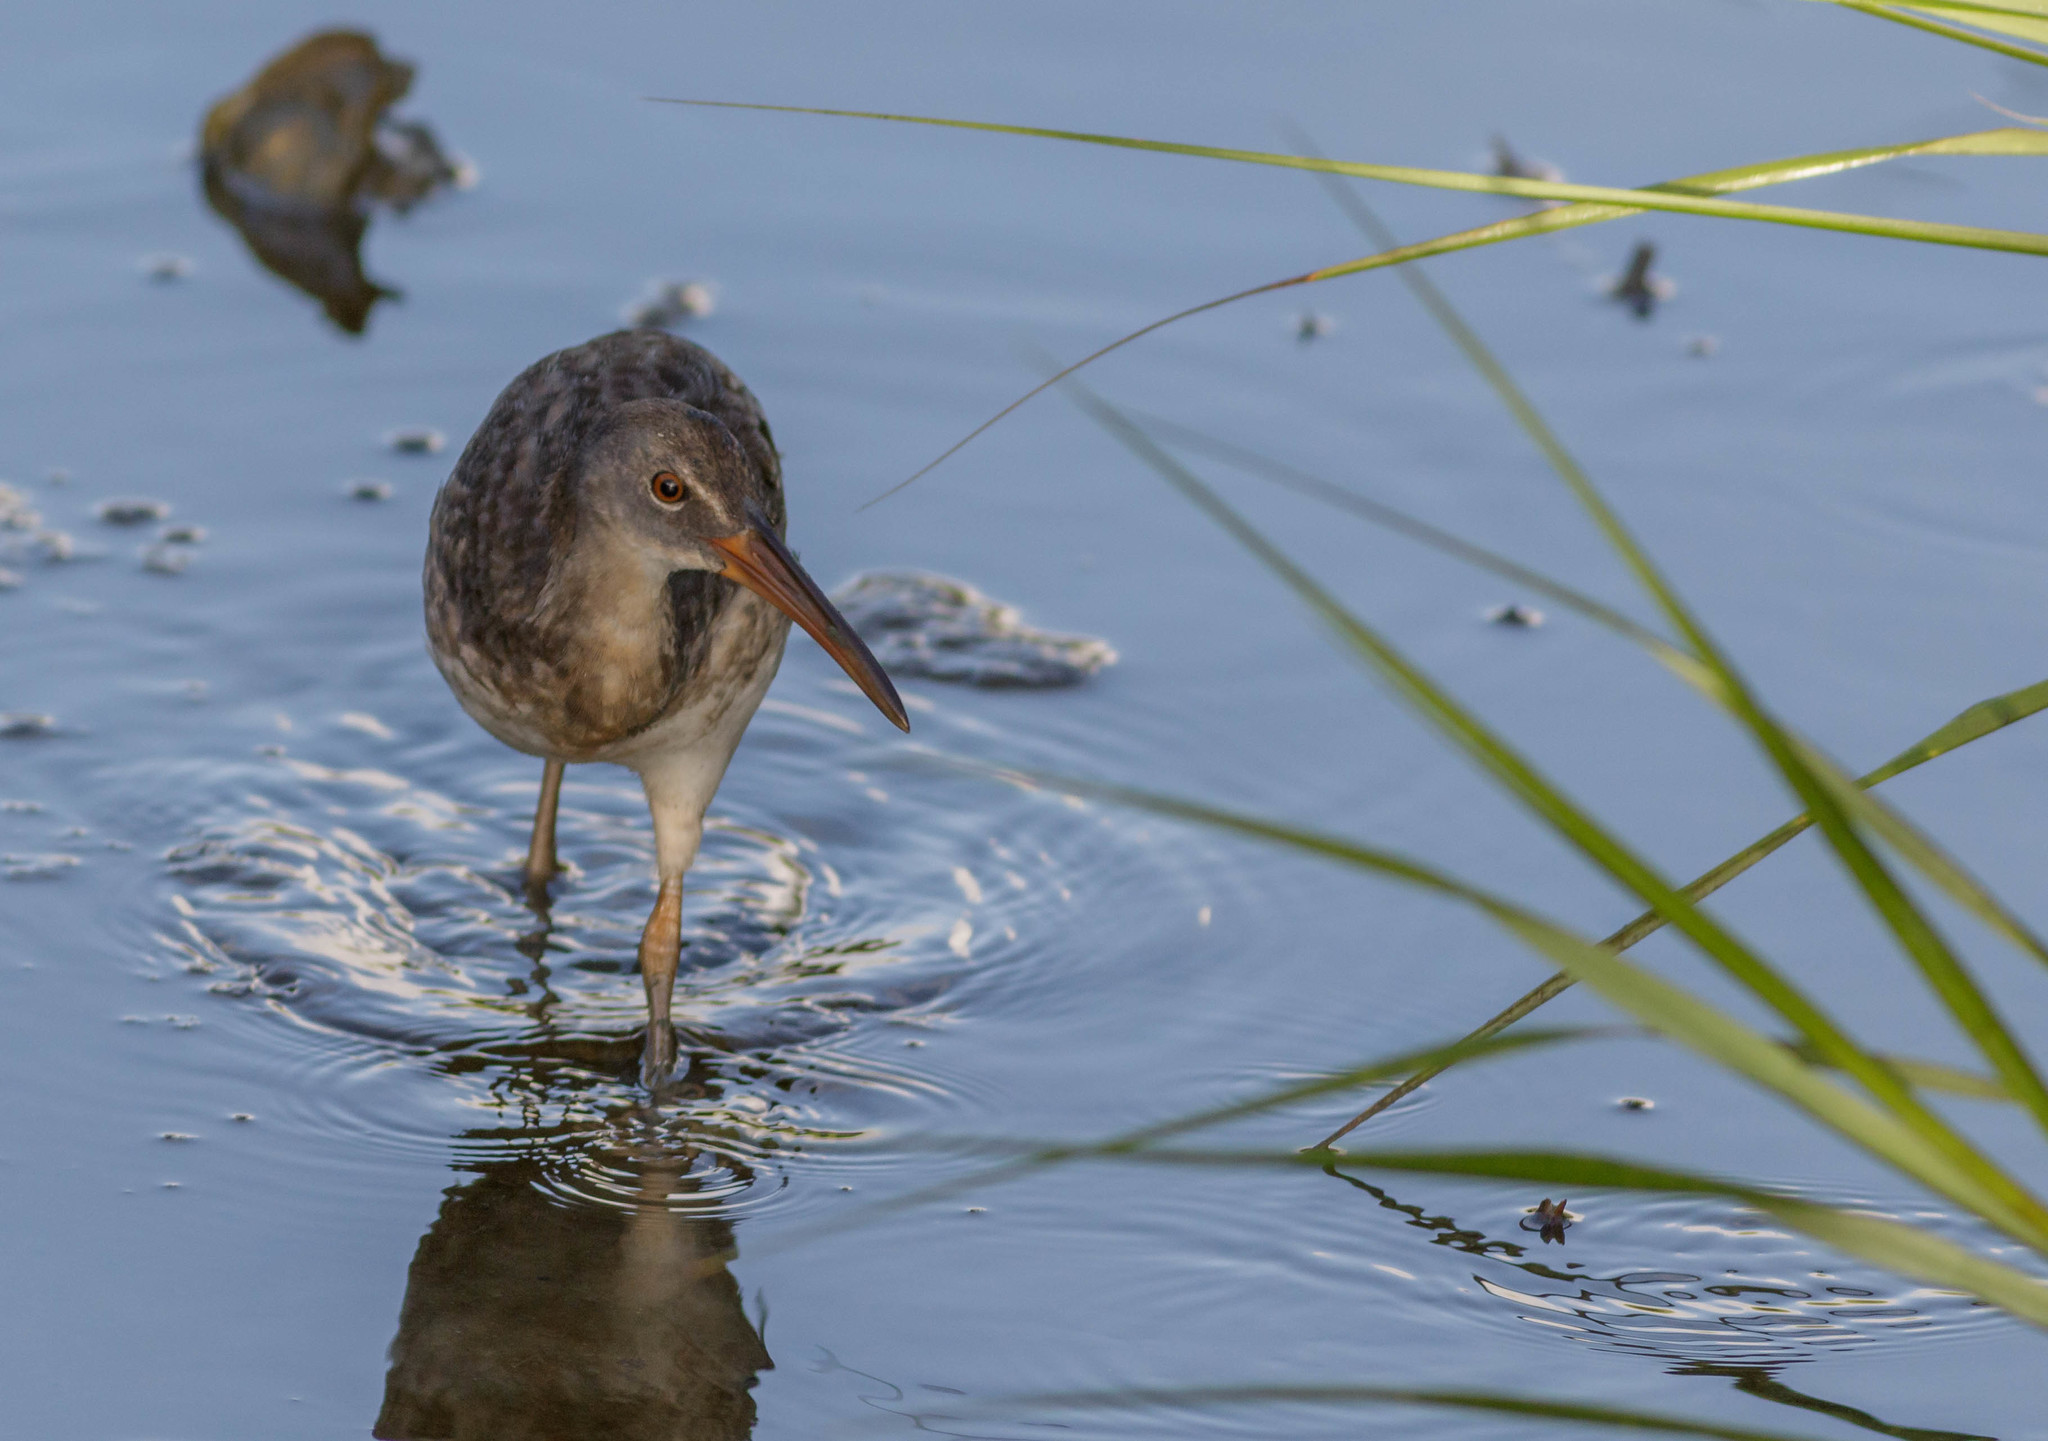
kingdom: Animalia
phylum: Chordata
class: Aves
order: Gruiformes
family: Rallidae
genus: Rallus
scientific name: Rallus crepitans
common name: Clapper rail
